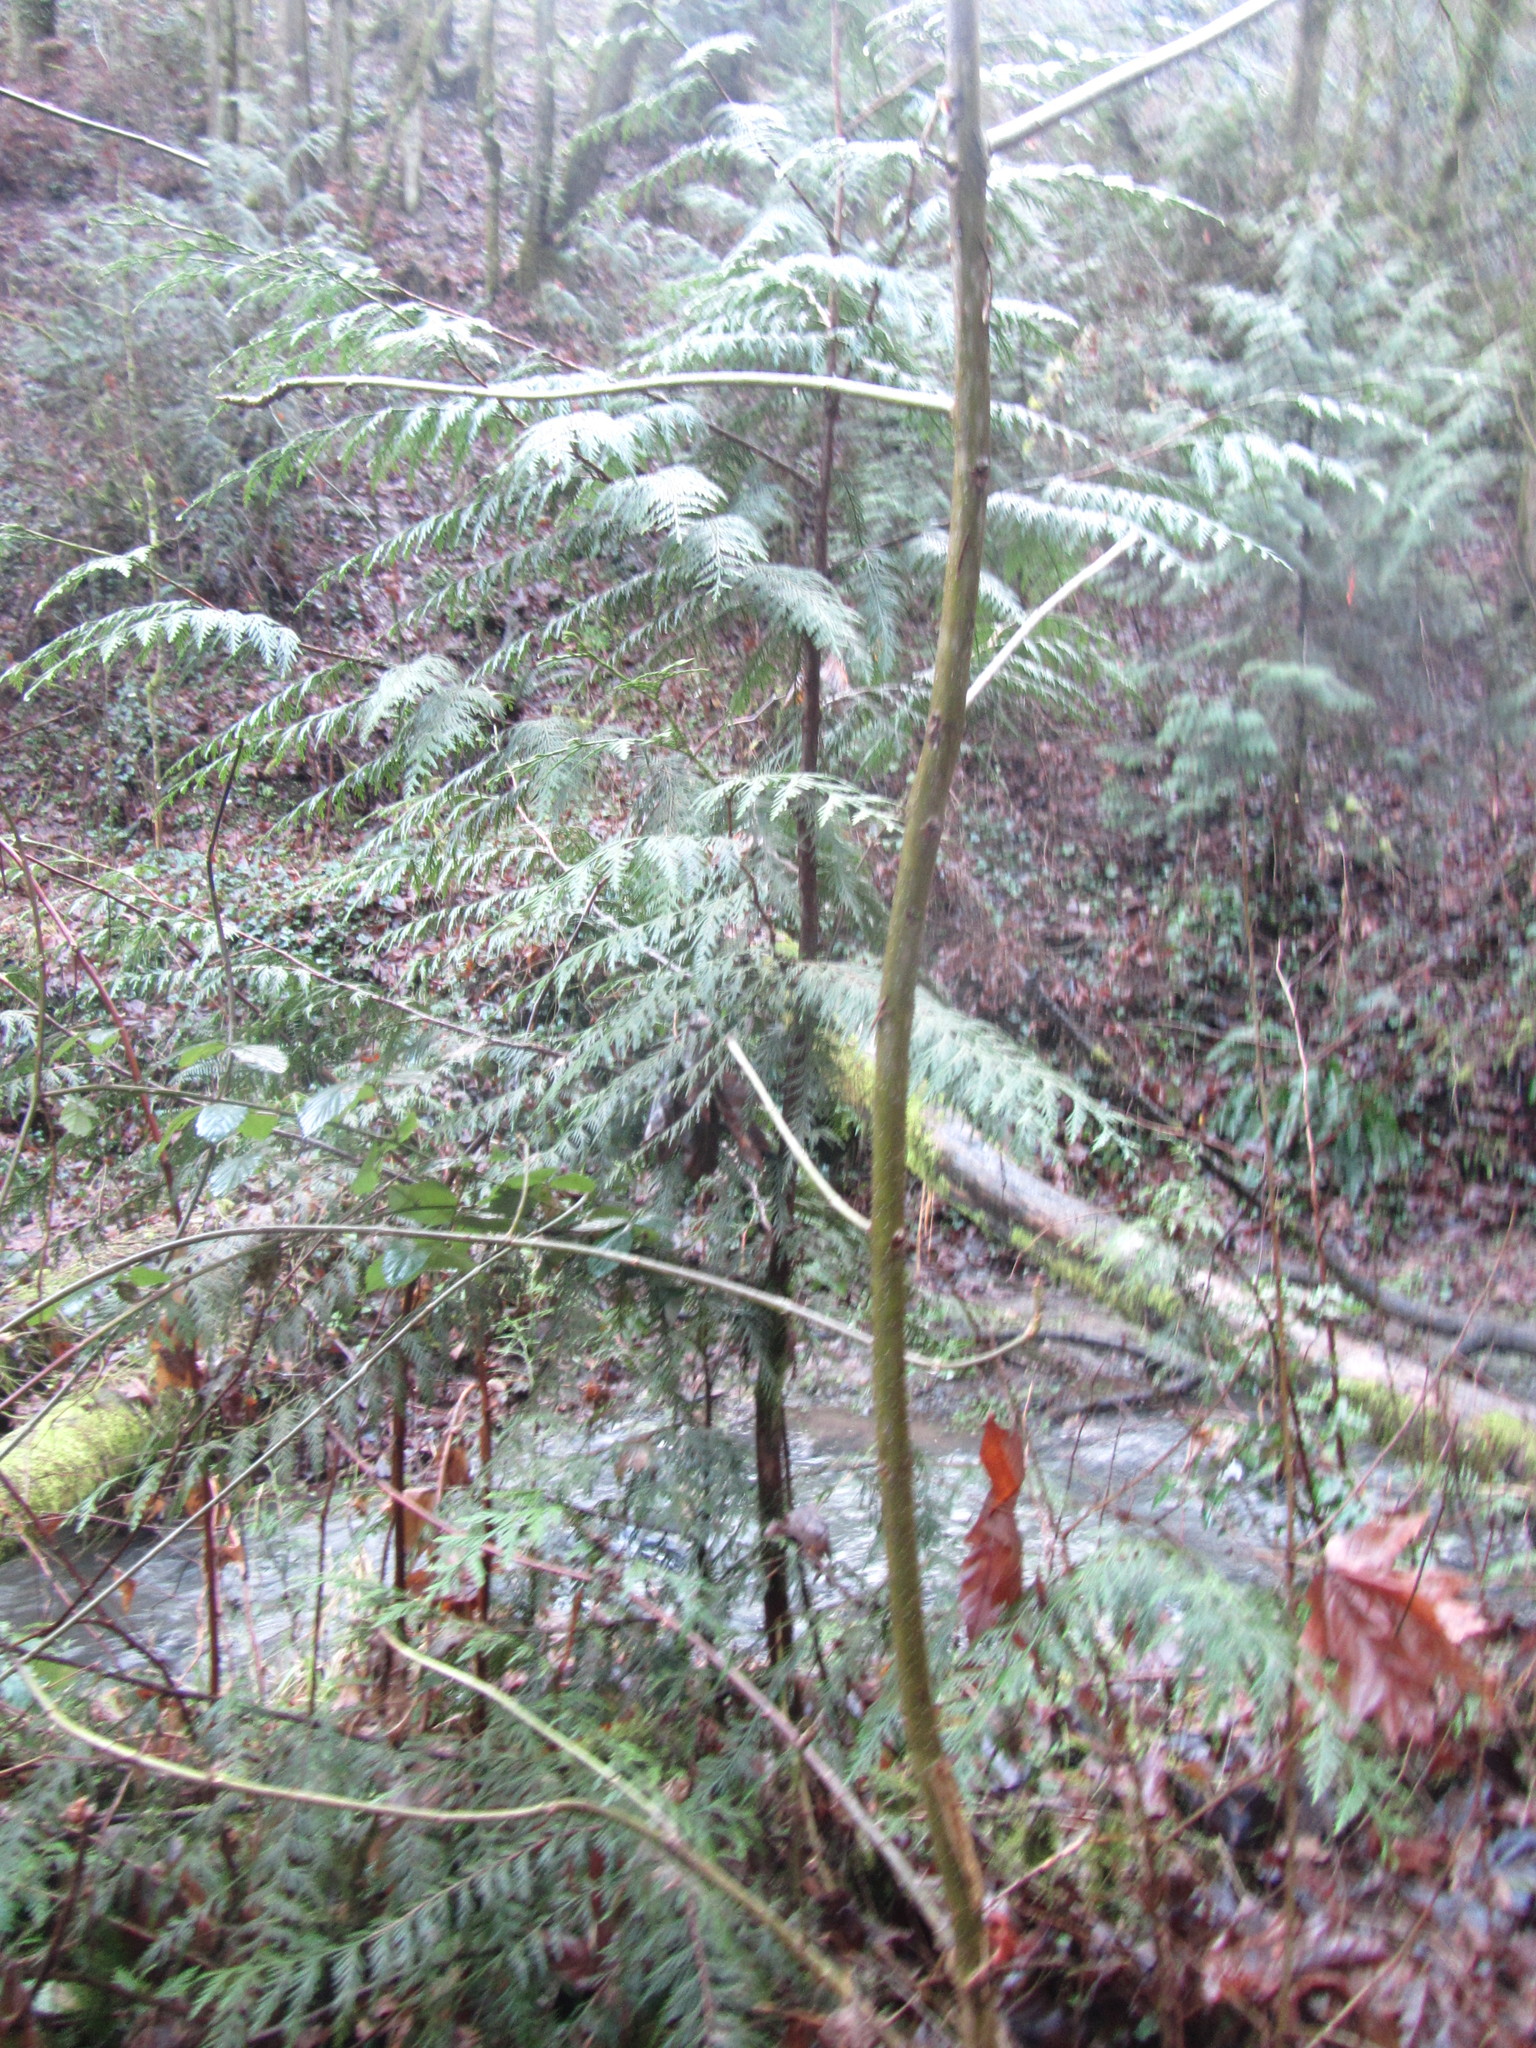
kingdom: Plantae
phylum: Tracheophyta
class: Pinopsida
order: Pinales
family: Cupressaceae
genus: Thuja
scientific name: Thuja plicata
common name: Western red-cedar
